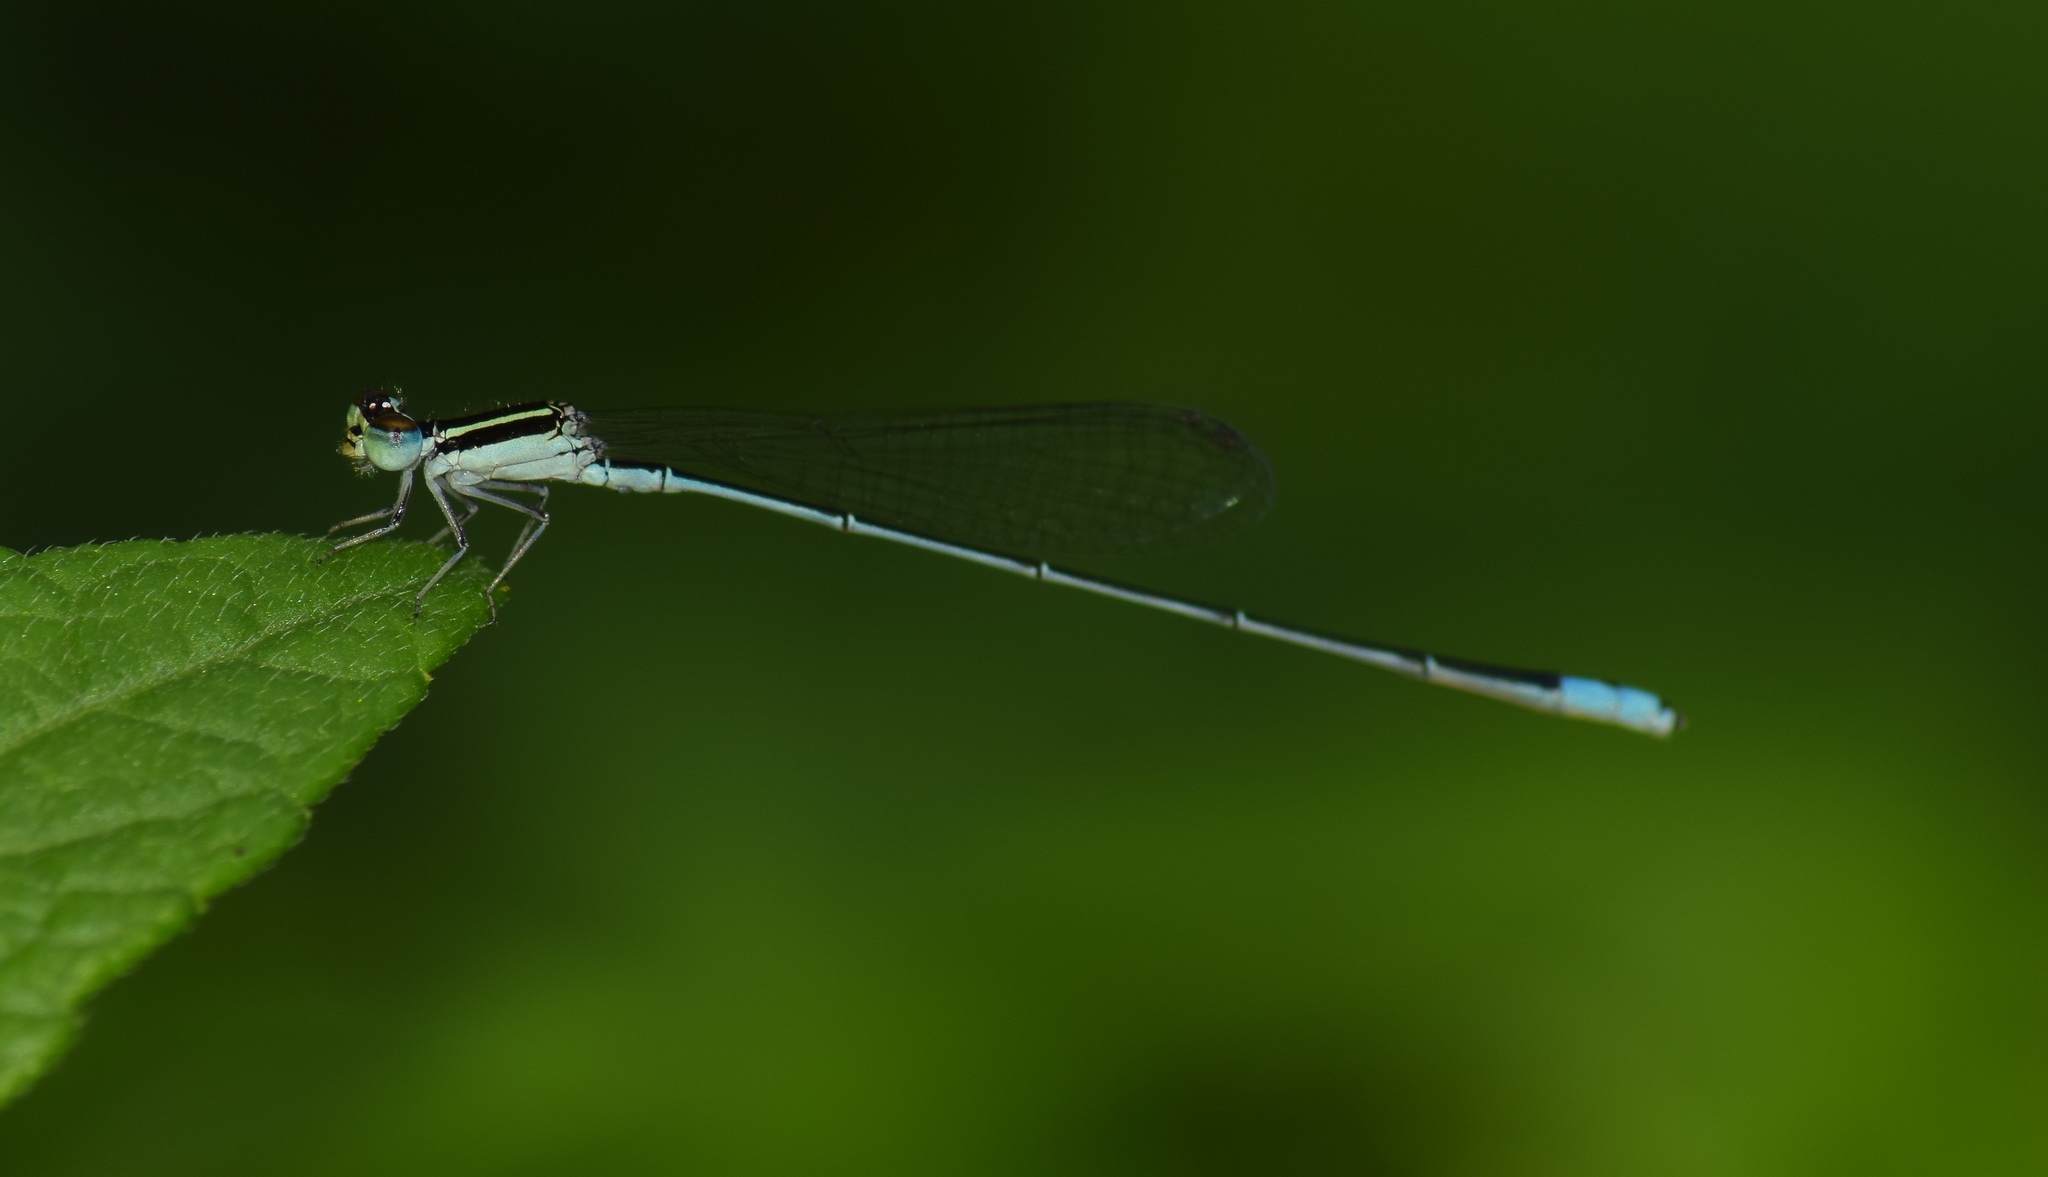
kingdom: Animalia
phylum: Arthropoda
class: Insecta
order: Odonata
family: Coenagrionidae
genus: Aciagrion
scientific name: Aciagrion occidentale
